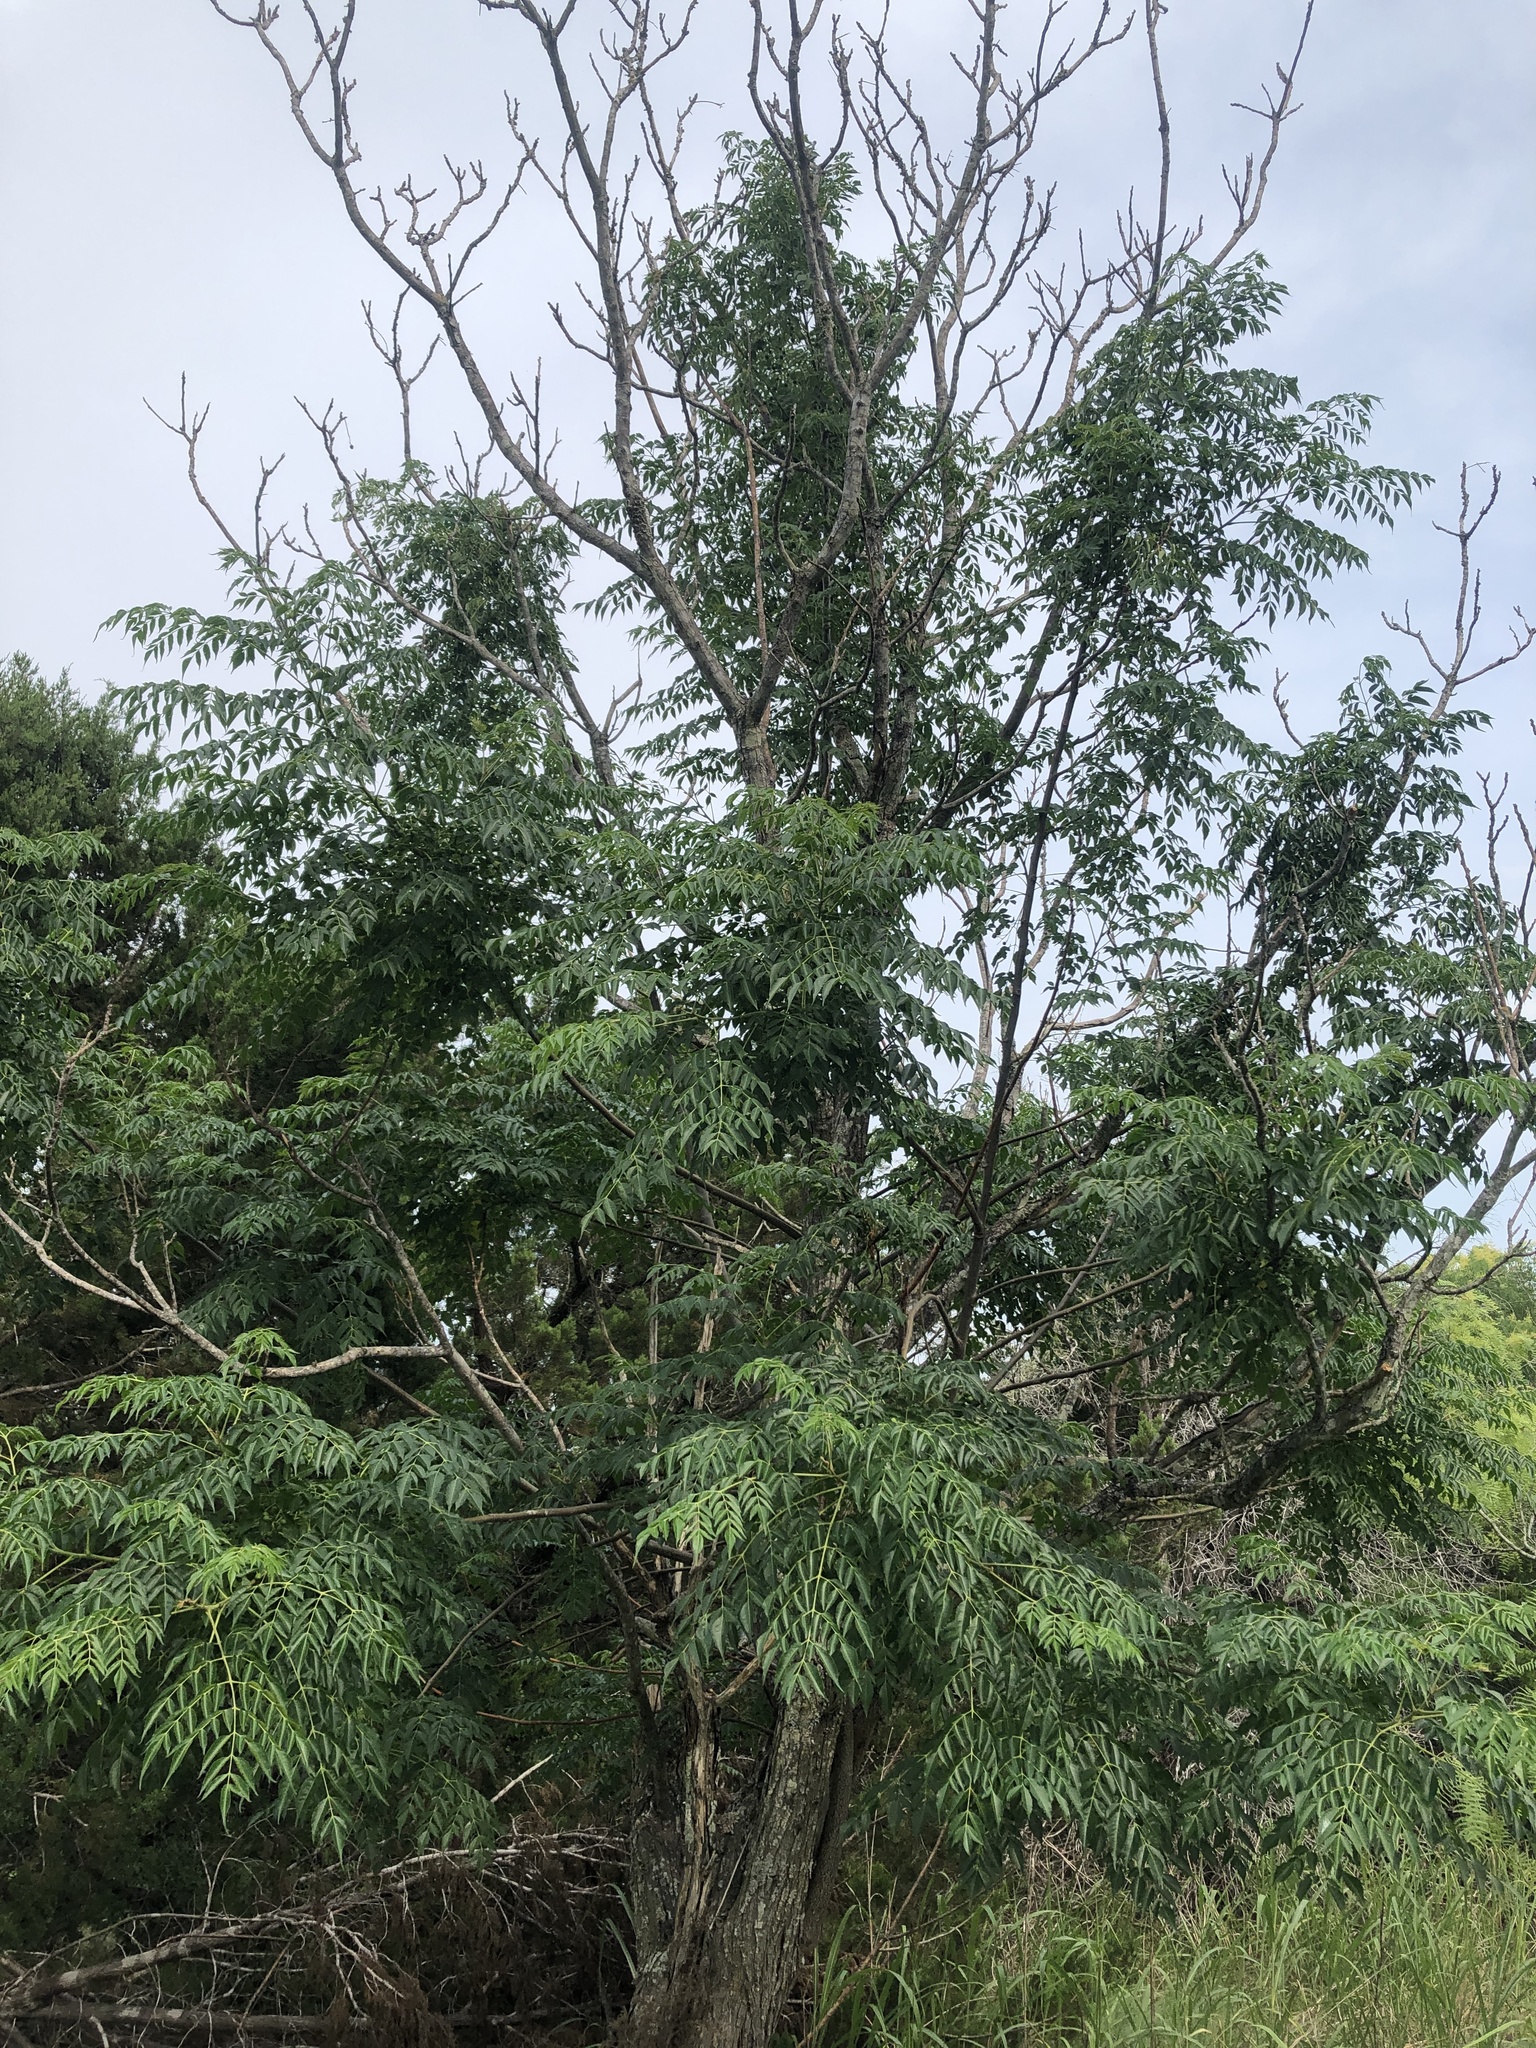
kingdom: Plantae
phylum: Tracheophyta
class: Magnoliopsida
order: Sapindales
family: Meliaceae
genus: Melia
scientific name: Melia azedarach
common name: Chinaberrytree
